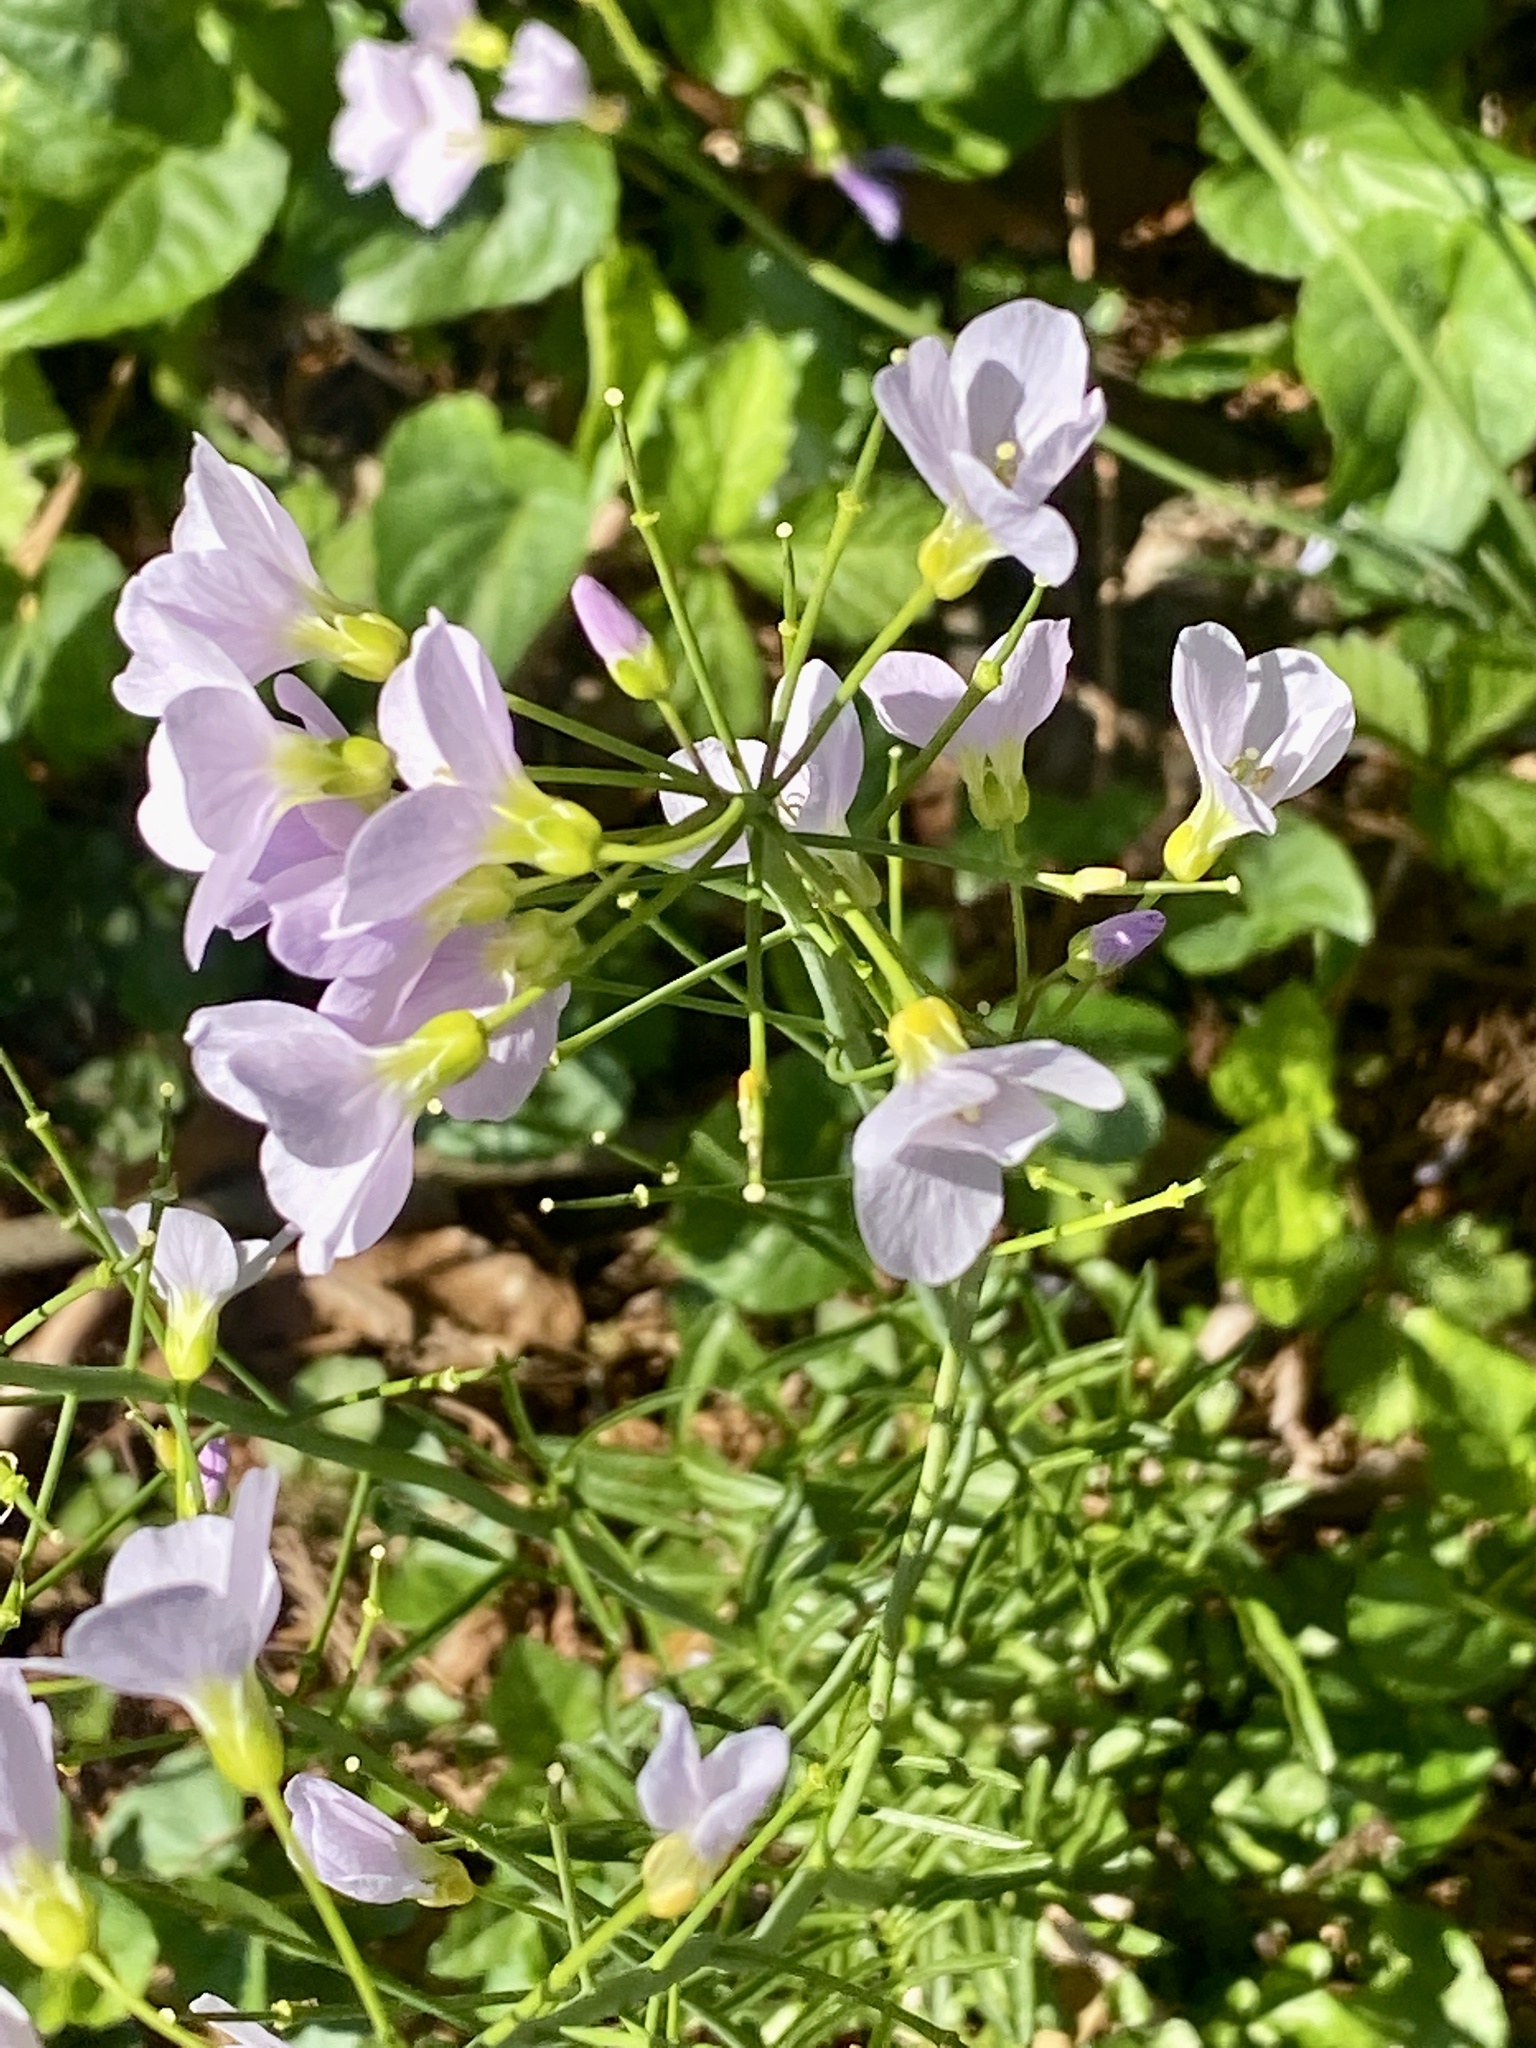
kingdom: Plantae
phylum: Tracheophyta
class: Magnoliopsida
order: Brassicales
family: Brassicaceae
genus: Cardamine
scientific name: Cardamine pratensis
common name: Cuckoo flower
